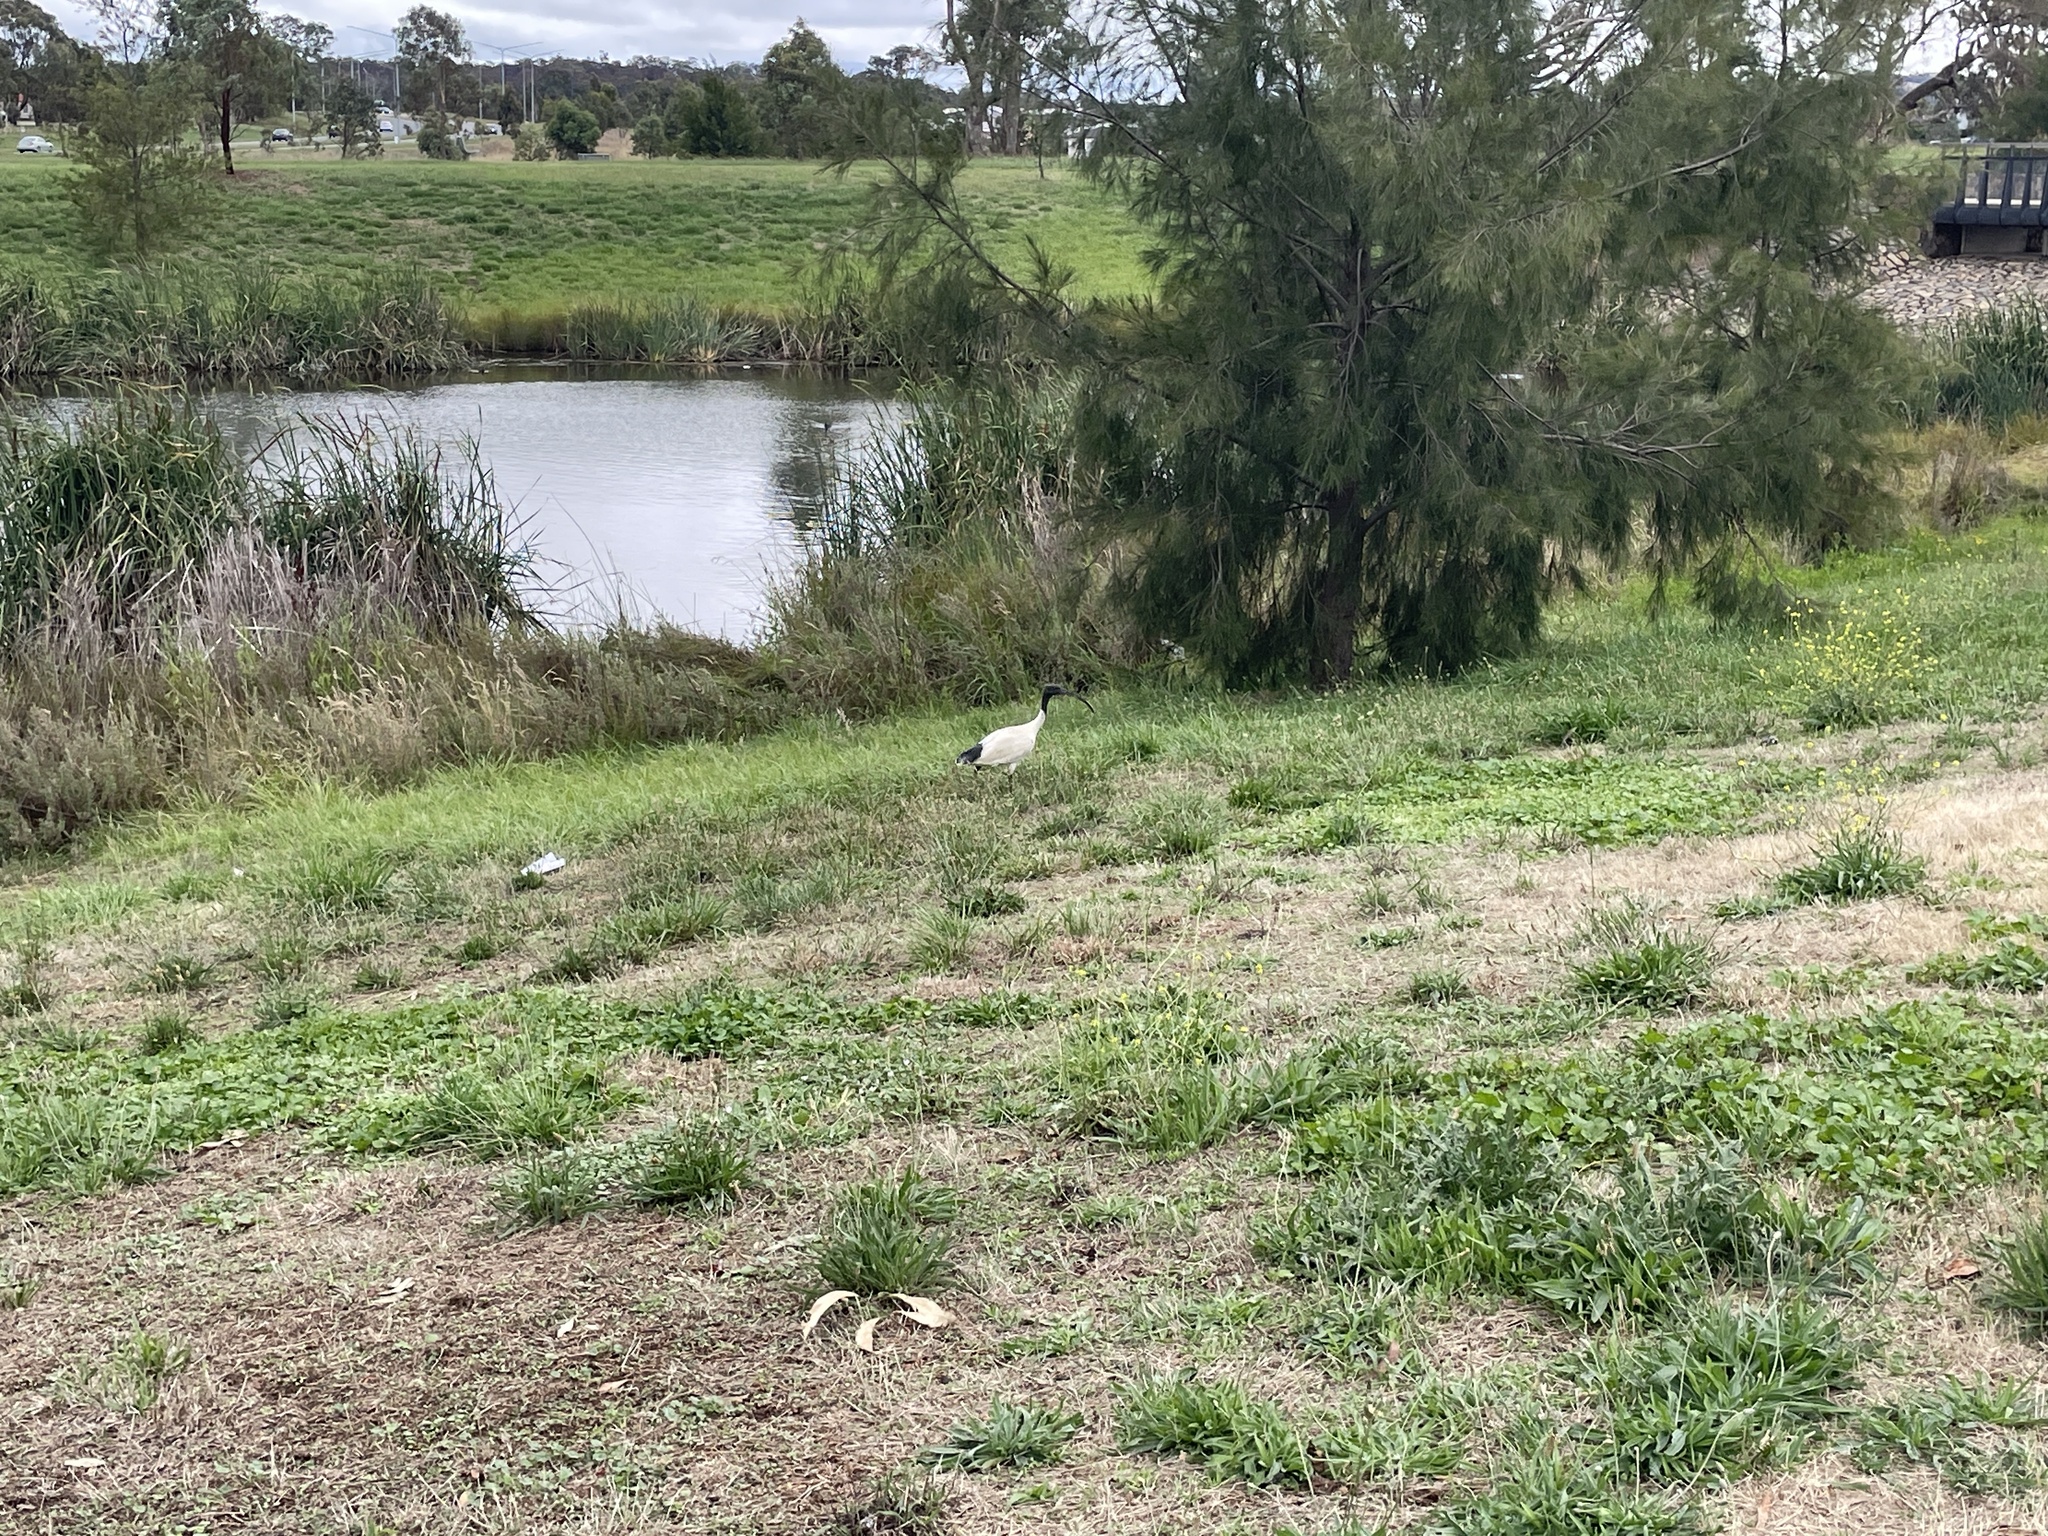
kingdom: Animalia
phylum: Chordata
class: Aves
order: Pelecaniformes
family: Threskiornithidae
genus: Threskiornis
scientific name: Threskiornis molucca
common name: Australian white ibis
